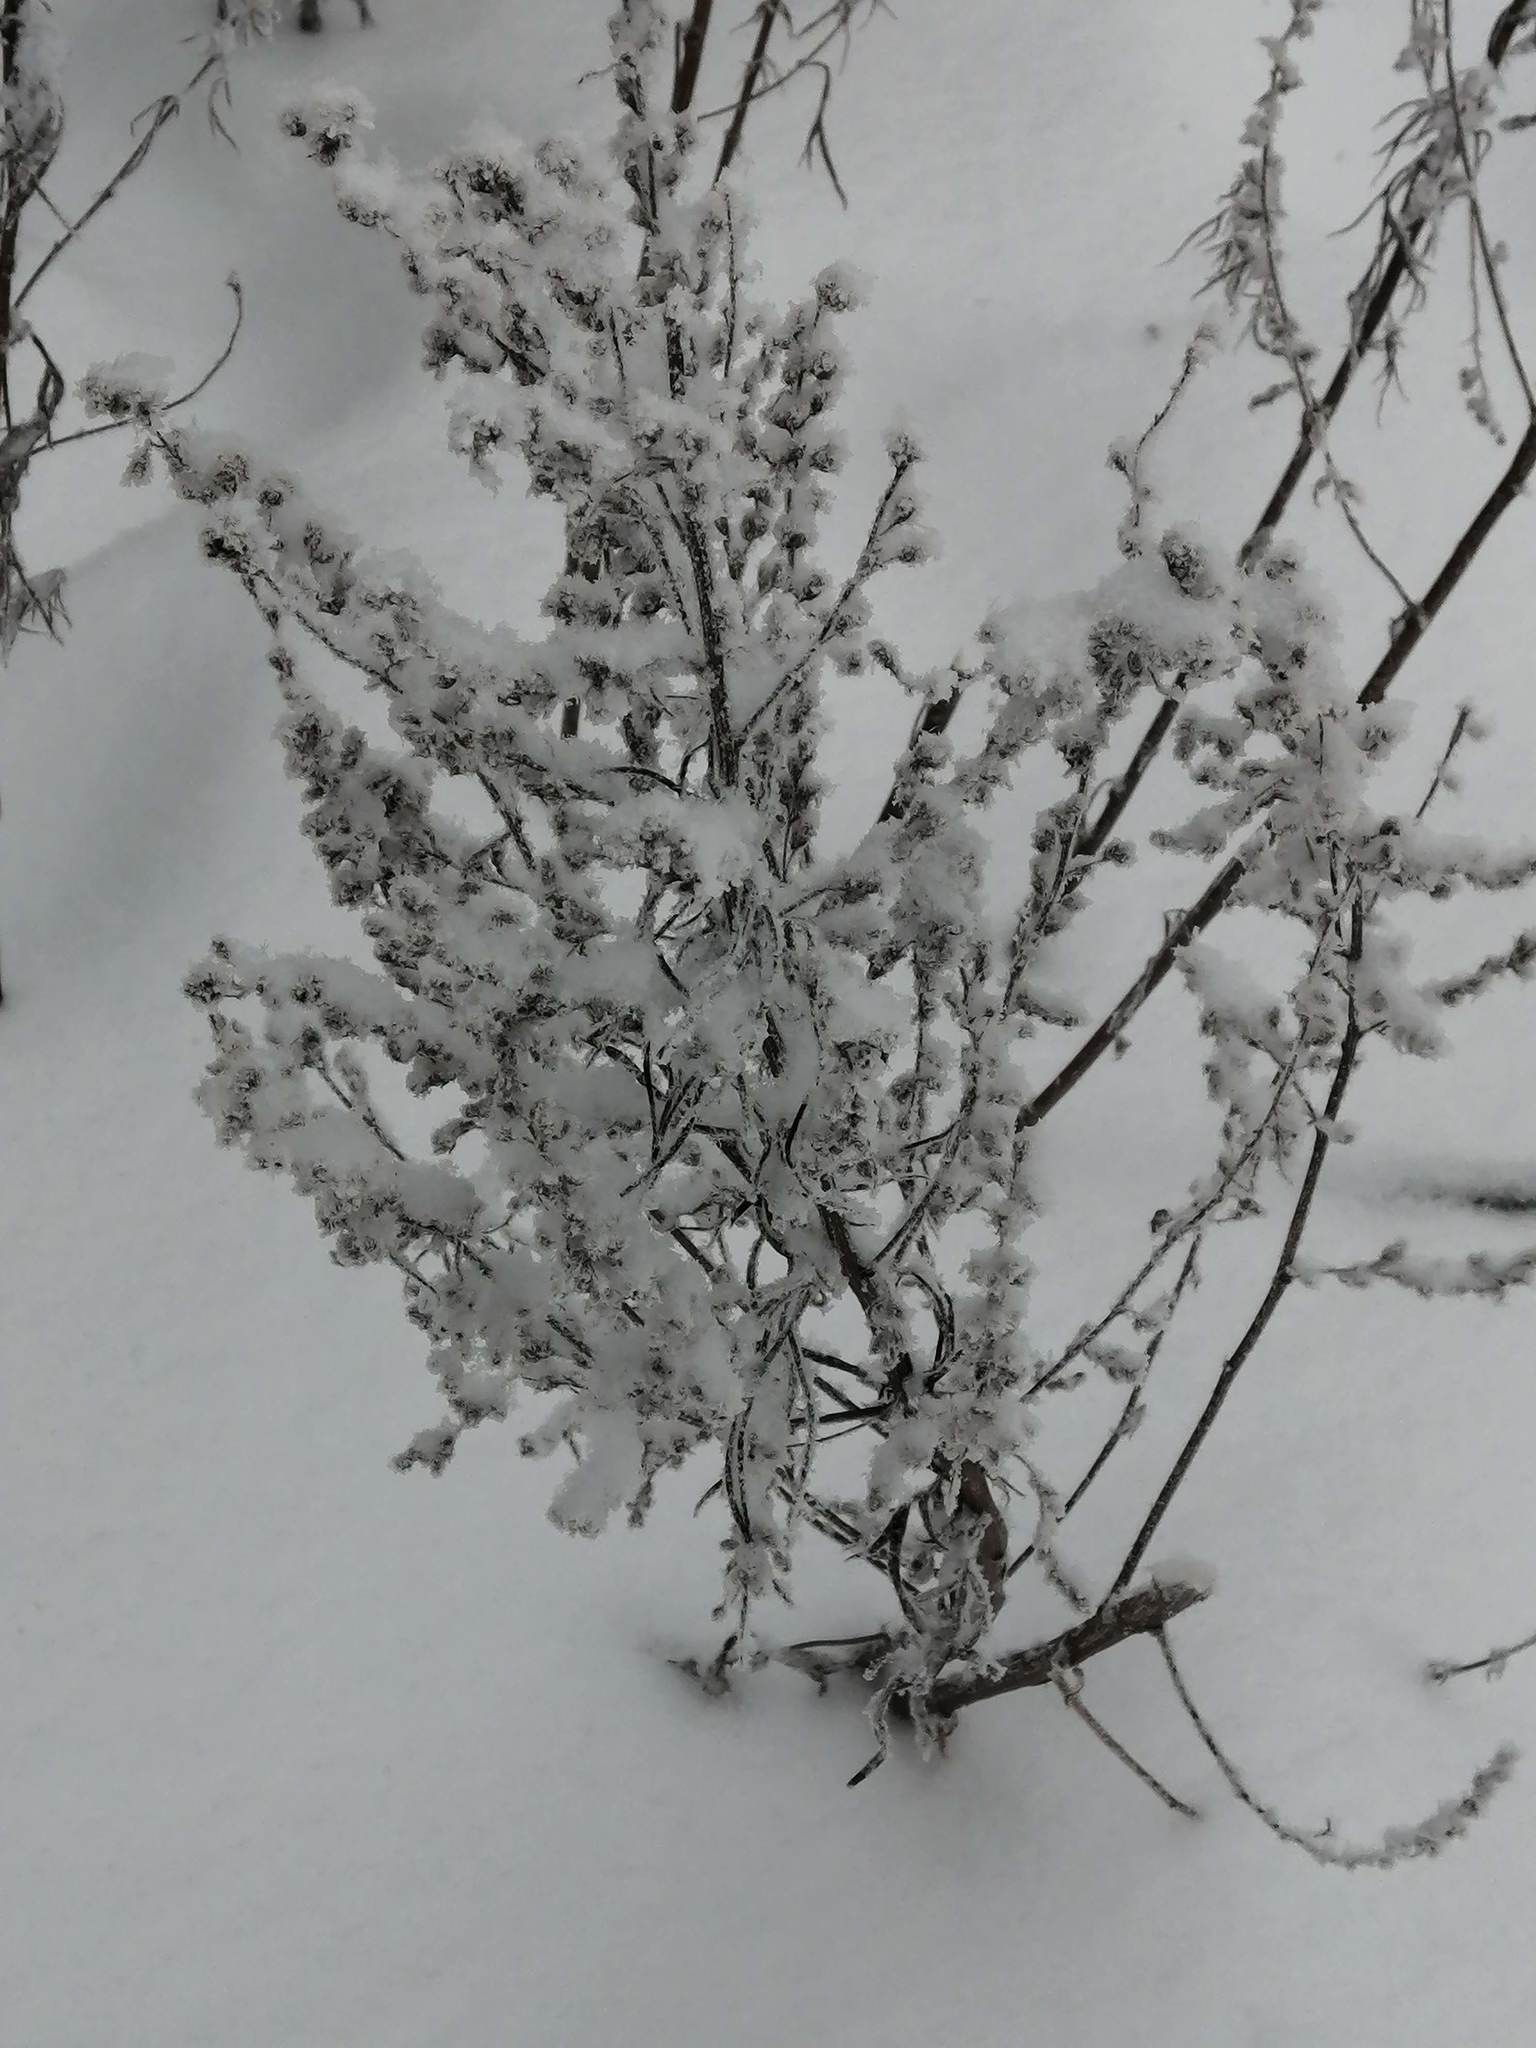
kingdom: Plantae
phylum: Tracheophyta
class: Magnoliopsida
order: Asterales
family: Asteraceae
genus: Artemisia
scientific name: Artemisia vulgaris
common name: Mugwort
